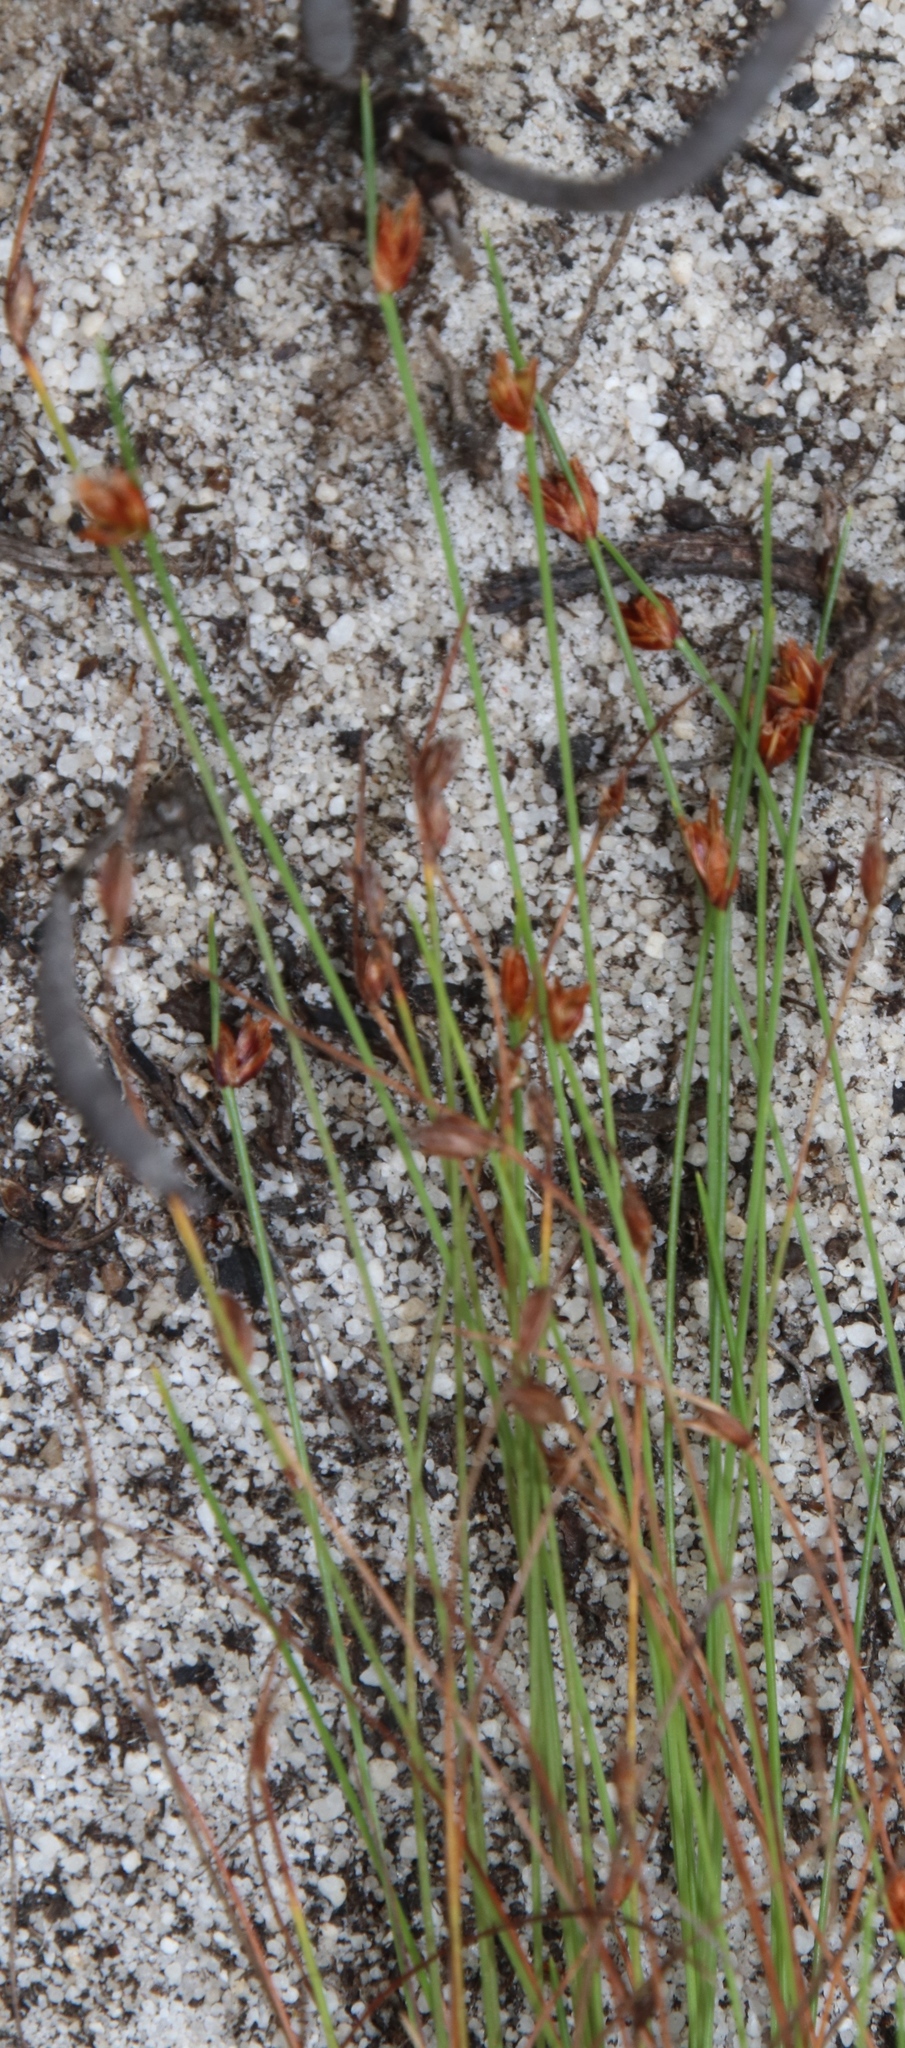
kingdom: Plantae
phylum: Tracheophyta
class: Liliopsida
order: Poales
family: Cyperaceae
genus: Ficinia
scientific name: Ficinia oligantha
